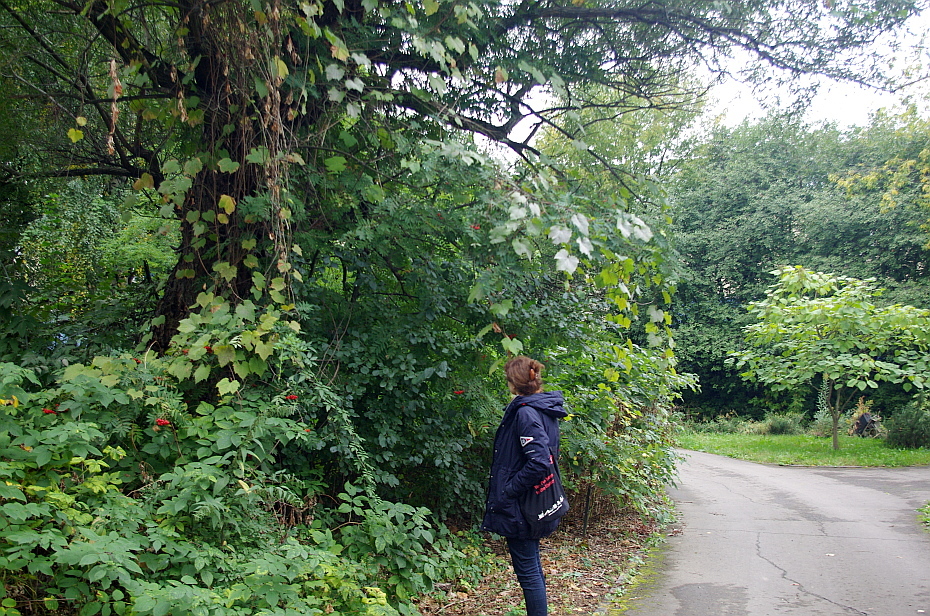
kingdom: Plantae
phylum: Tracheophyta
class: Magnoliopsida
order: Malpighiales
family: Salicaceae
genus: Salix
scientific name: Salix fragilis
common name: Crack willow
